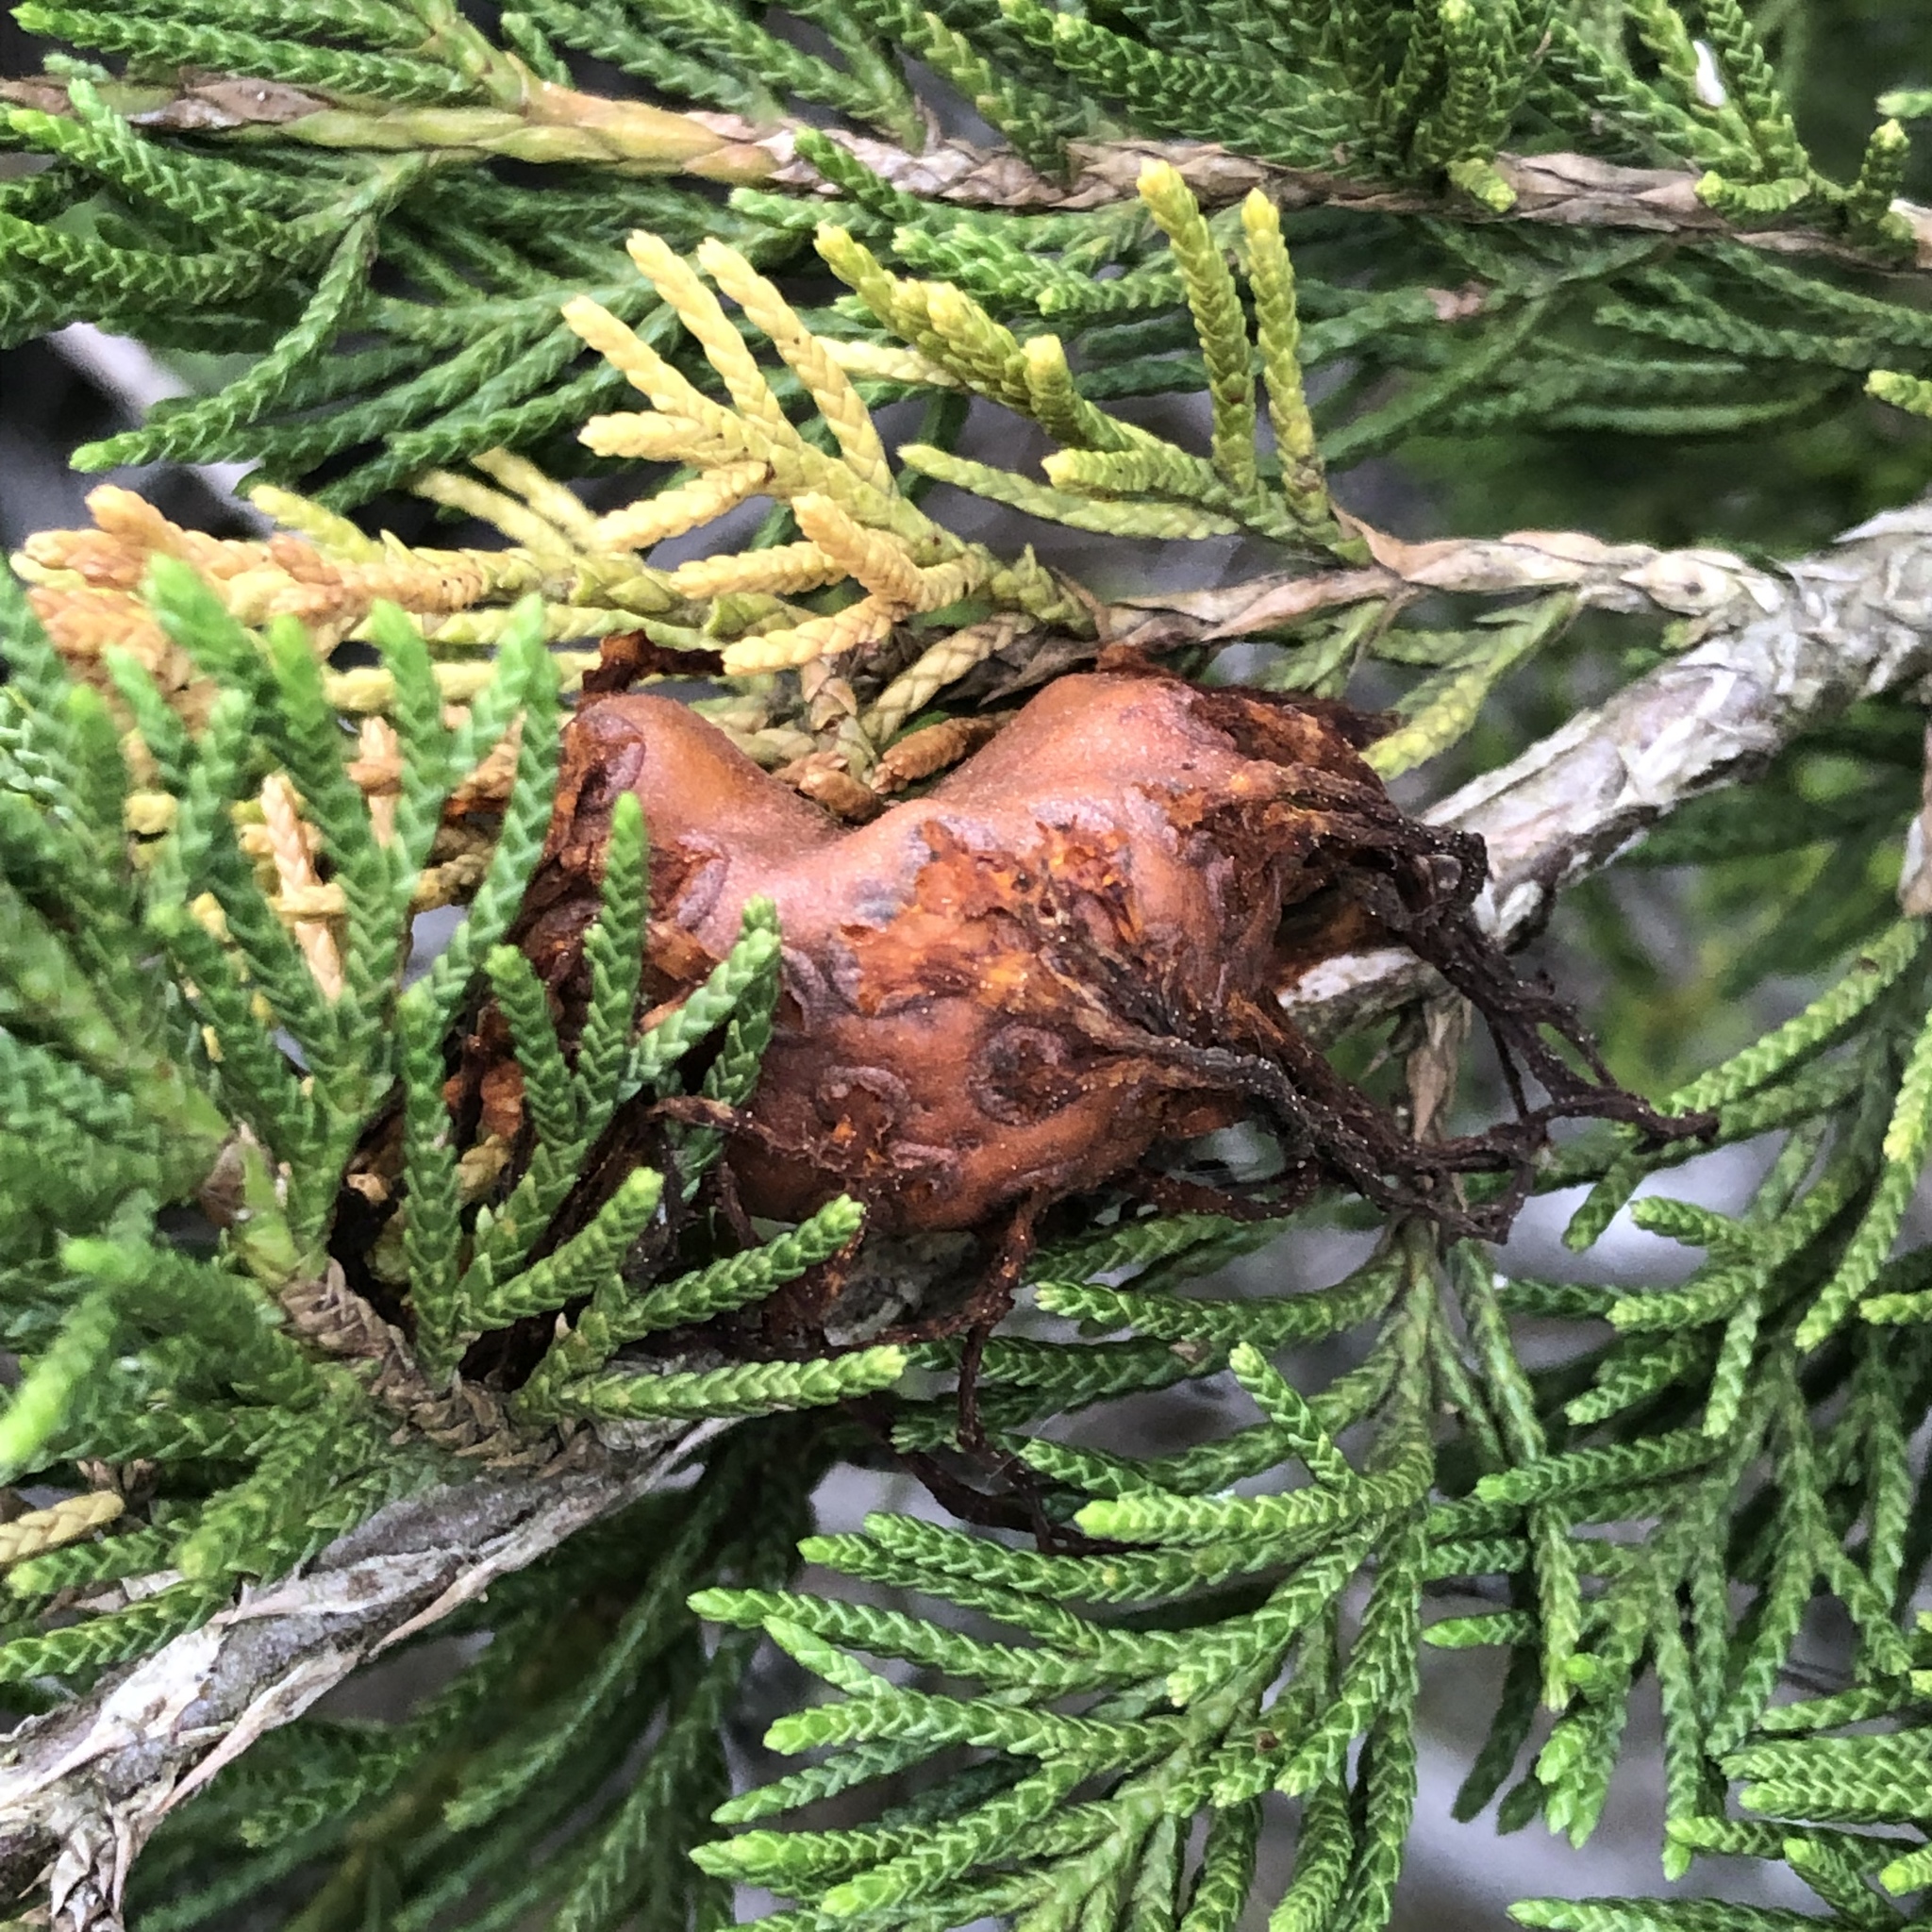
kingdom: Fungi
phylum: Basidiomycota
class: Pucciniomycetes
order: Pucciniales
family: Gymnosporangiaceae
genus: Gymnosporangium
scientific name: Gymnosporangium juniperi-virginianae
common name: Juniper-apple rust
